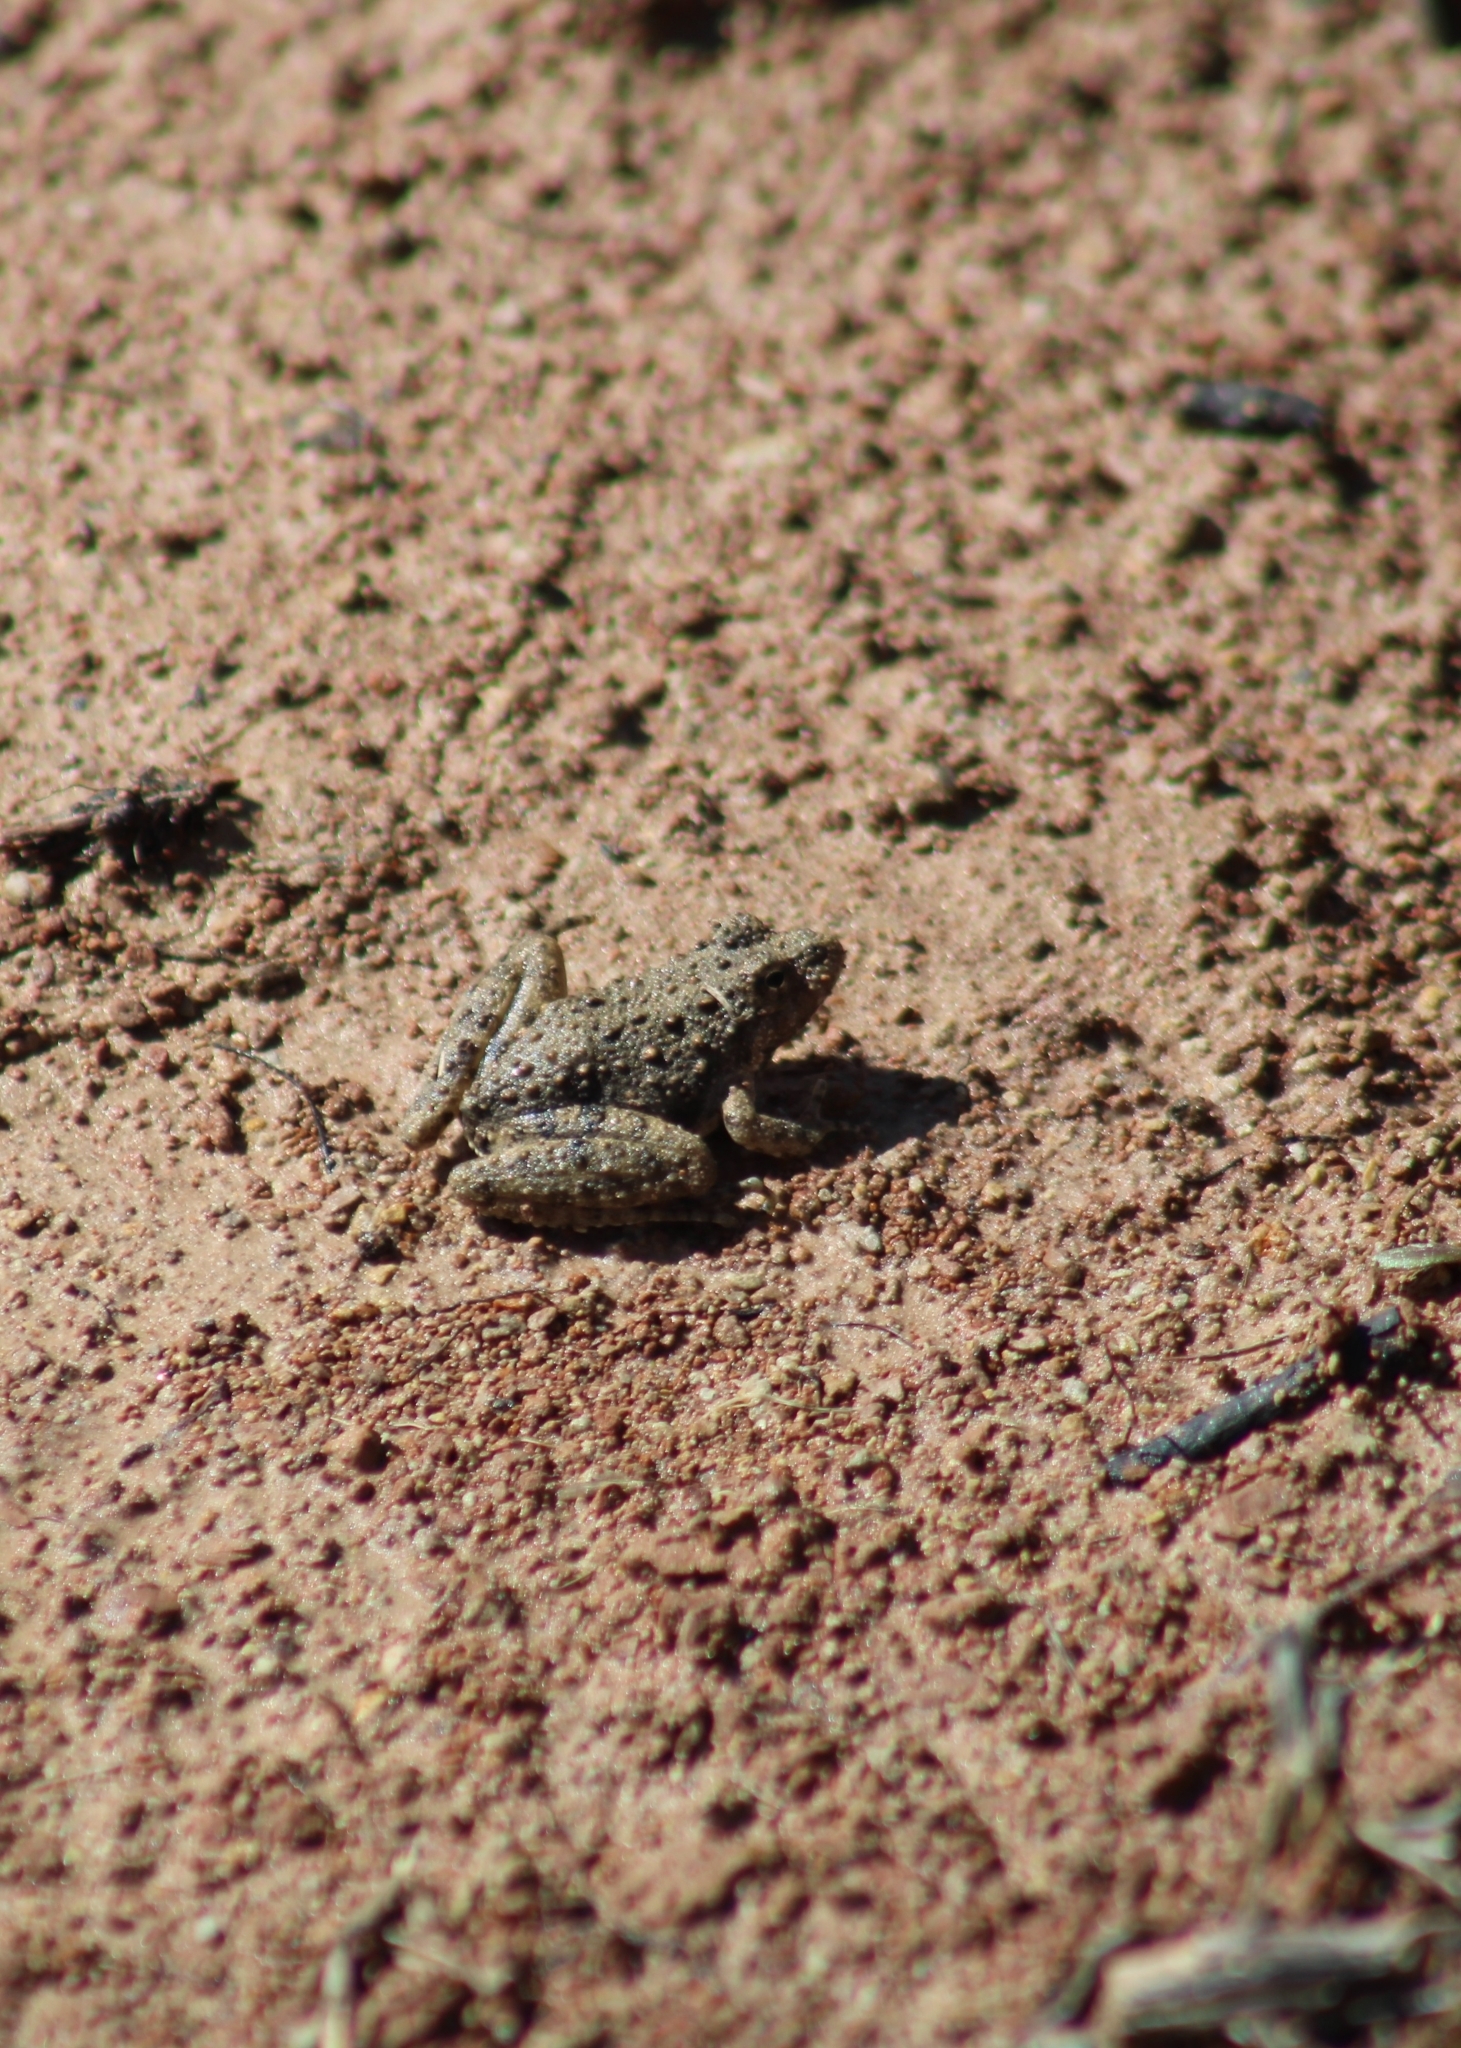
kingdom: Animalia
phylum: Chordata
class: Amphibia
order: Anura
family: Hylidae
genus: Acris
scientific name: Acris blanchardi
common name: Blanchard's cricket frog
